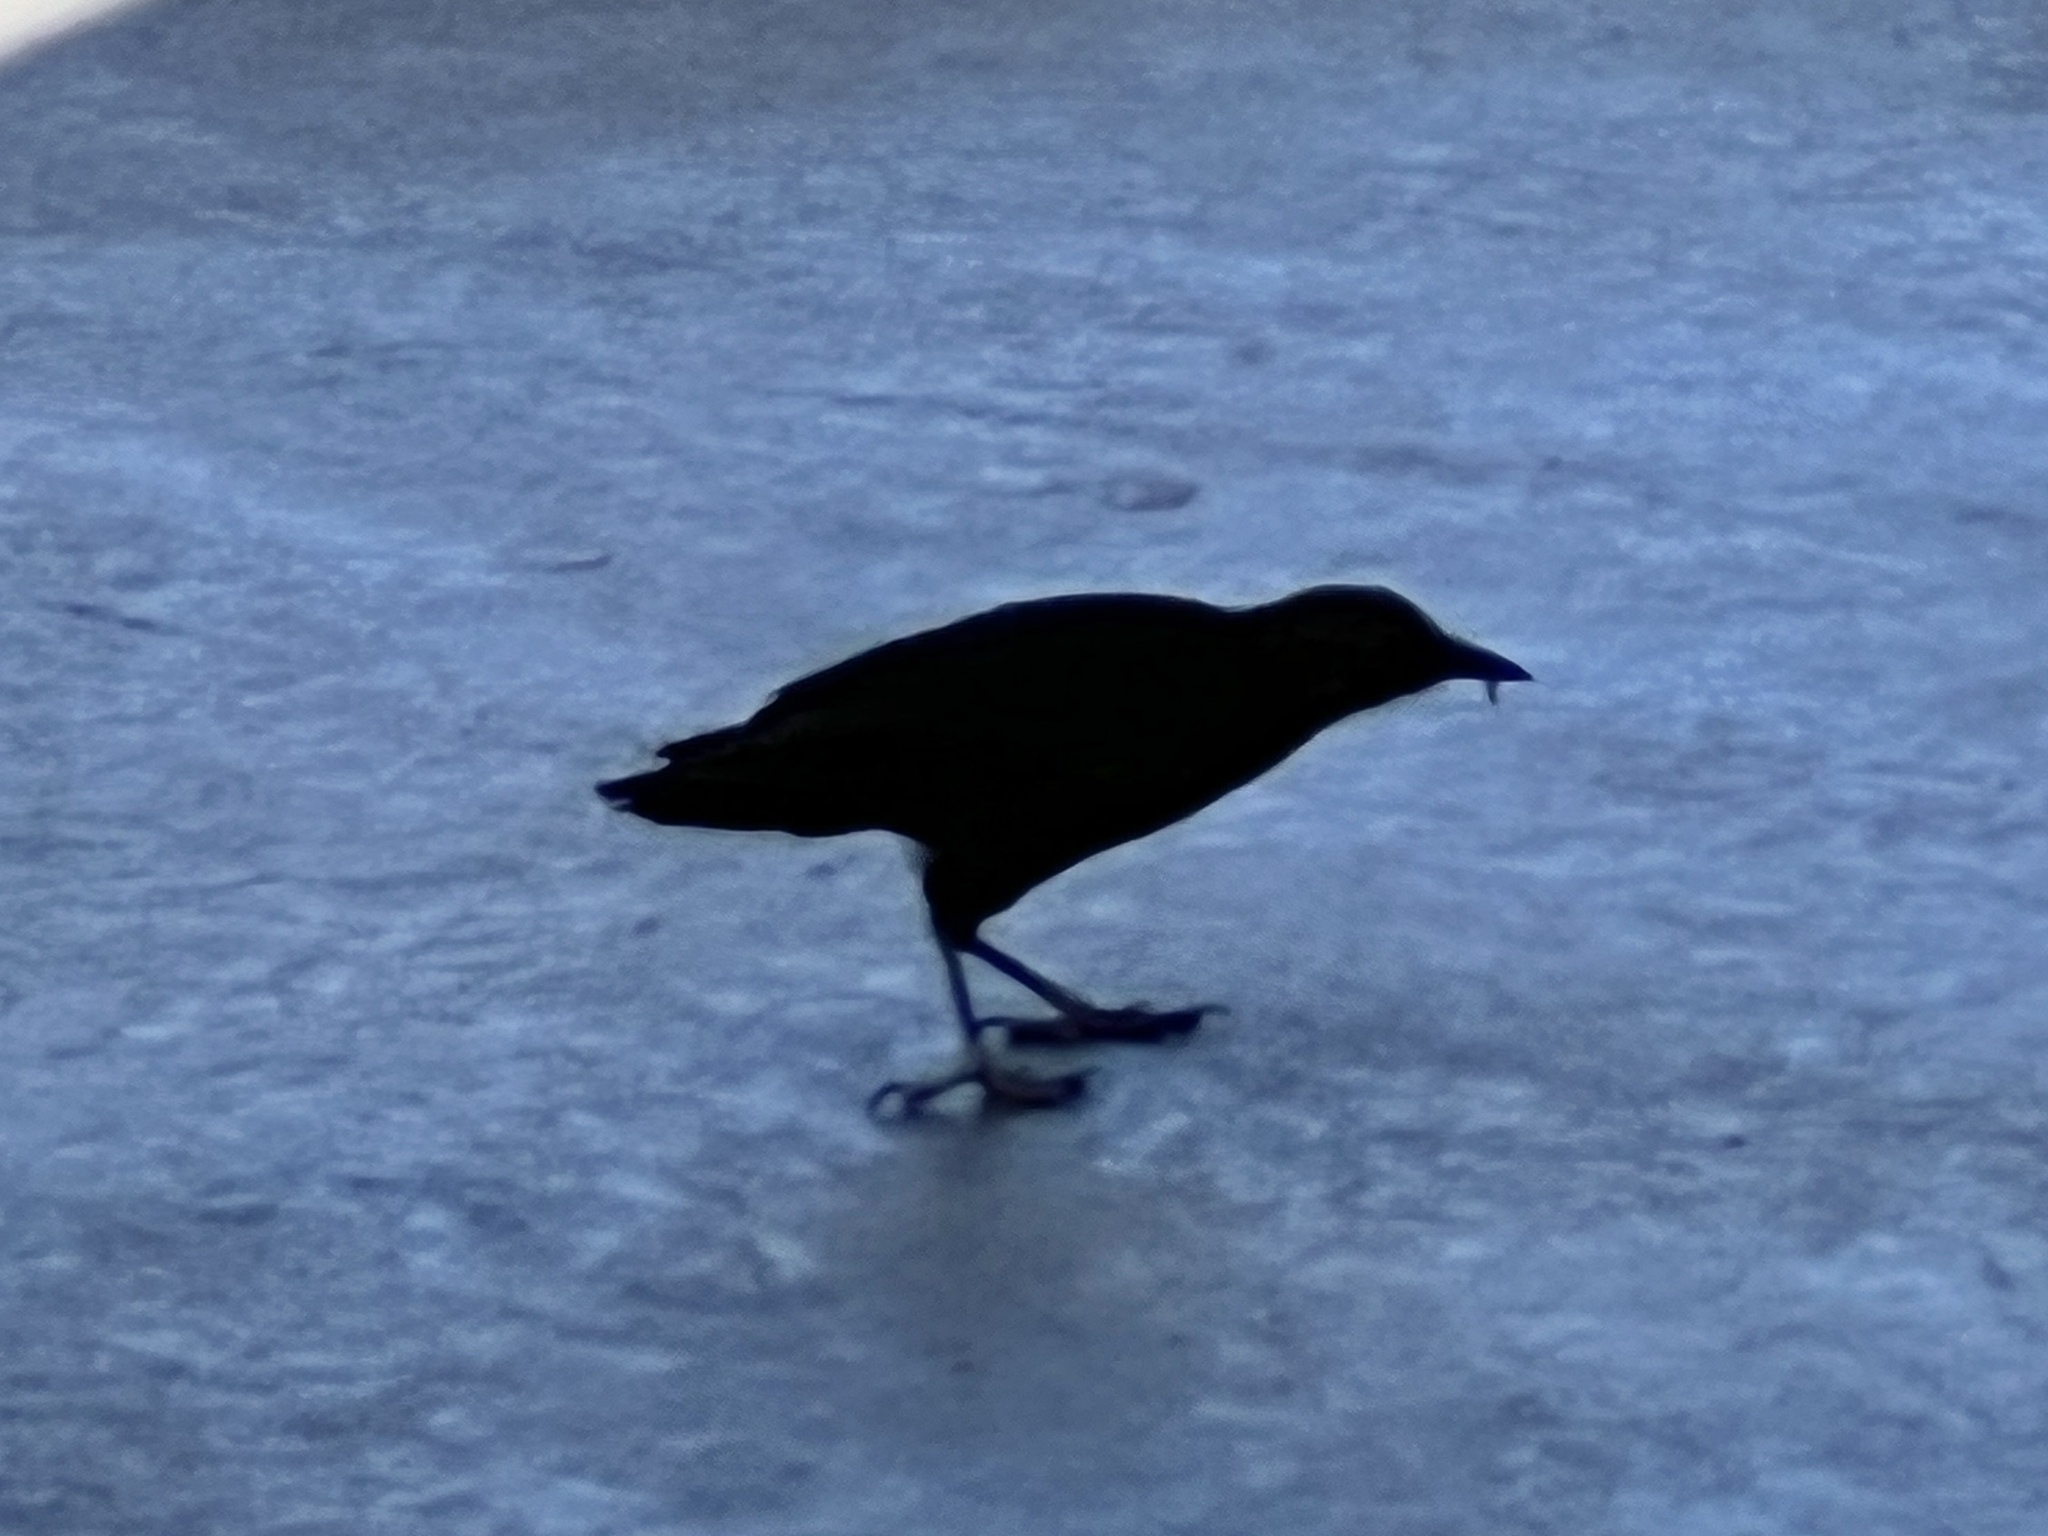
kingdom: Animalia
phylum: Chordata
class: Aves
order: Passeriformes
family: Icteridae
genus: Quiscalus
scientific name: Quiscalus mexicanus
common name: Great-tailed grackle
